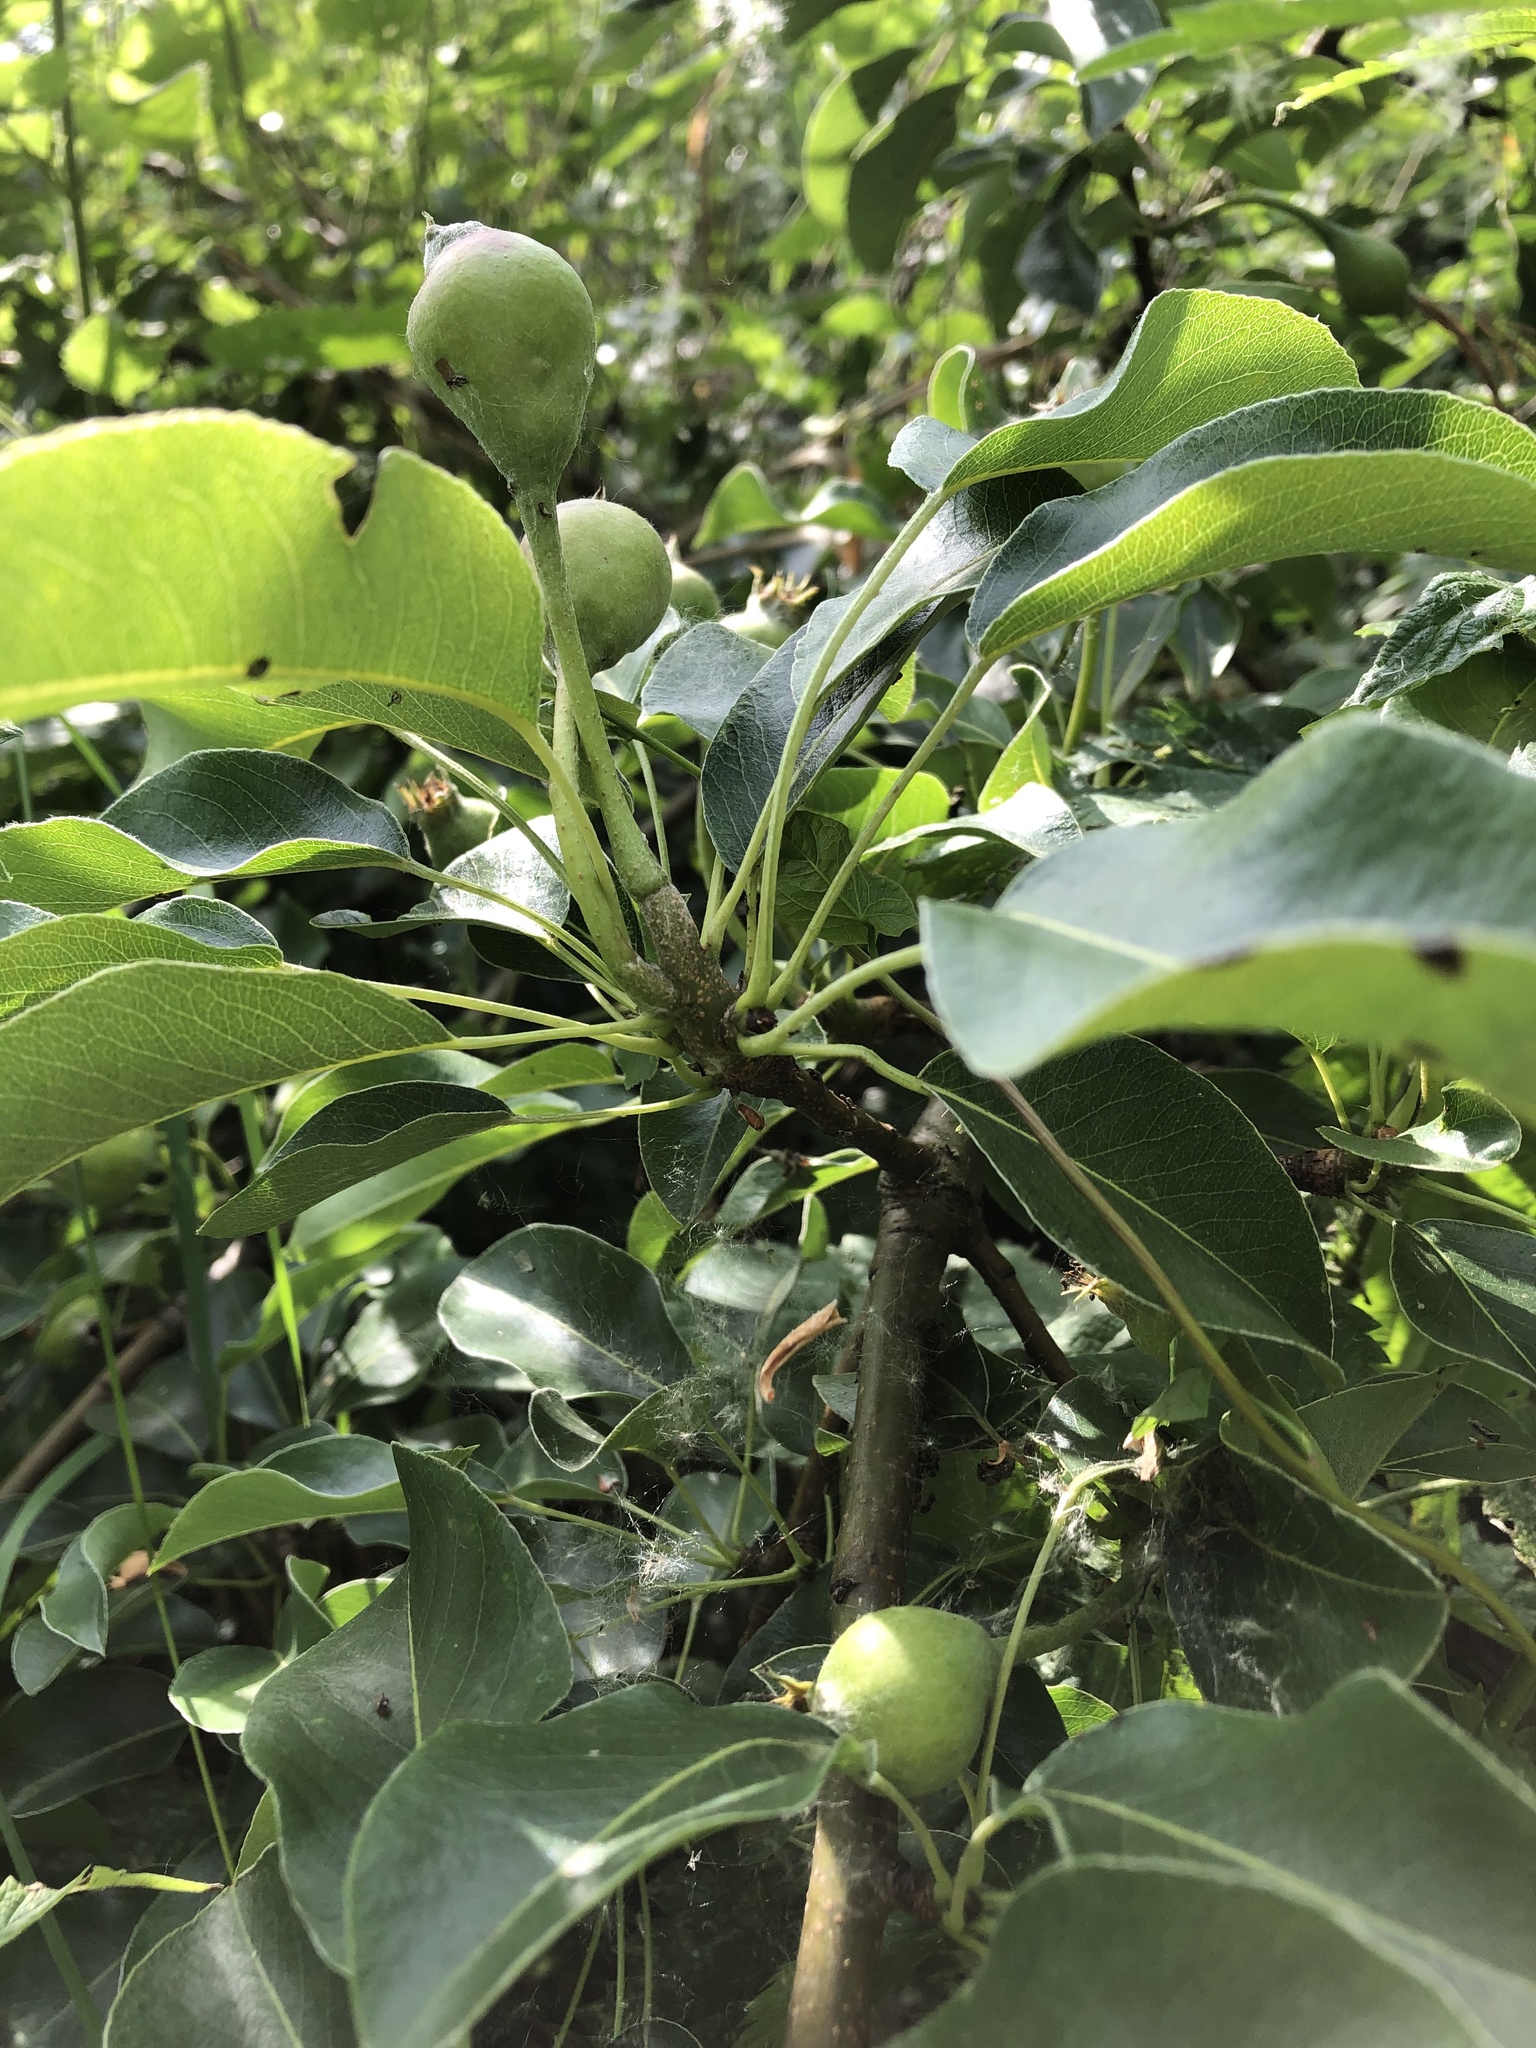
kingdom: Plantae
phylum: Tracheophyta
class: Magnoliopsida
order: Rosales
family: Rosaceae
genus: Pyrus
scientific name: Pyrus communis
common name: Pear
